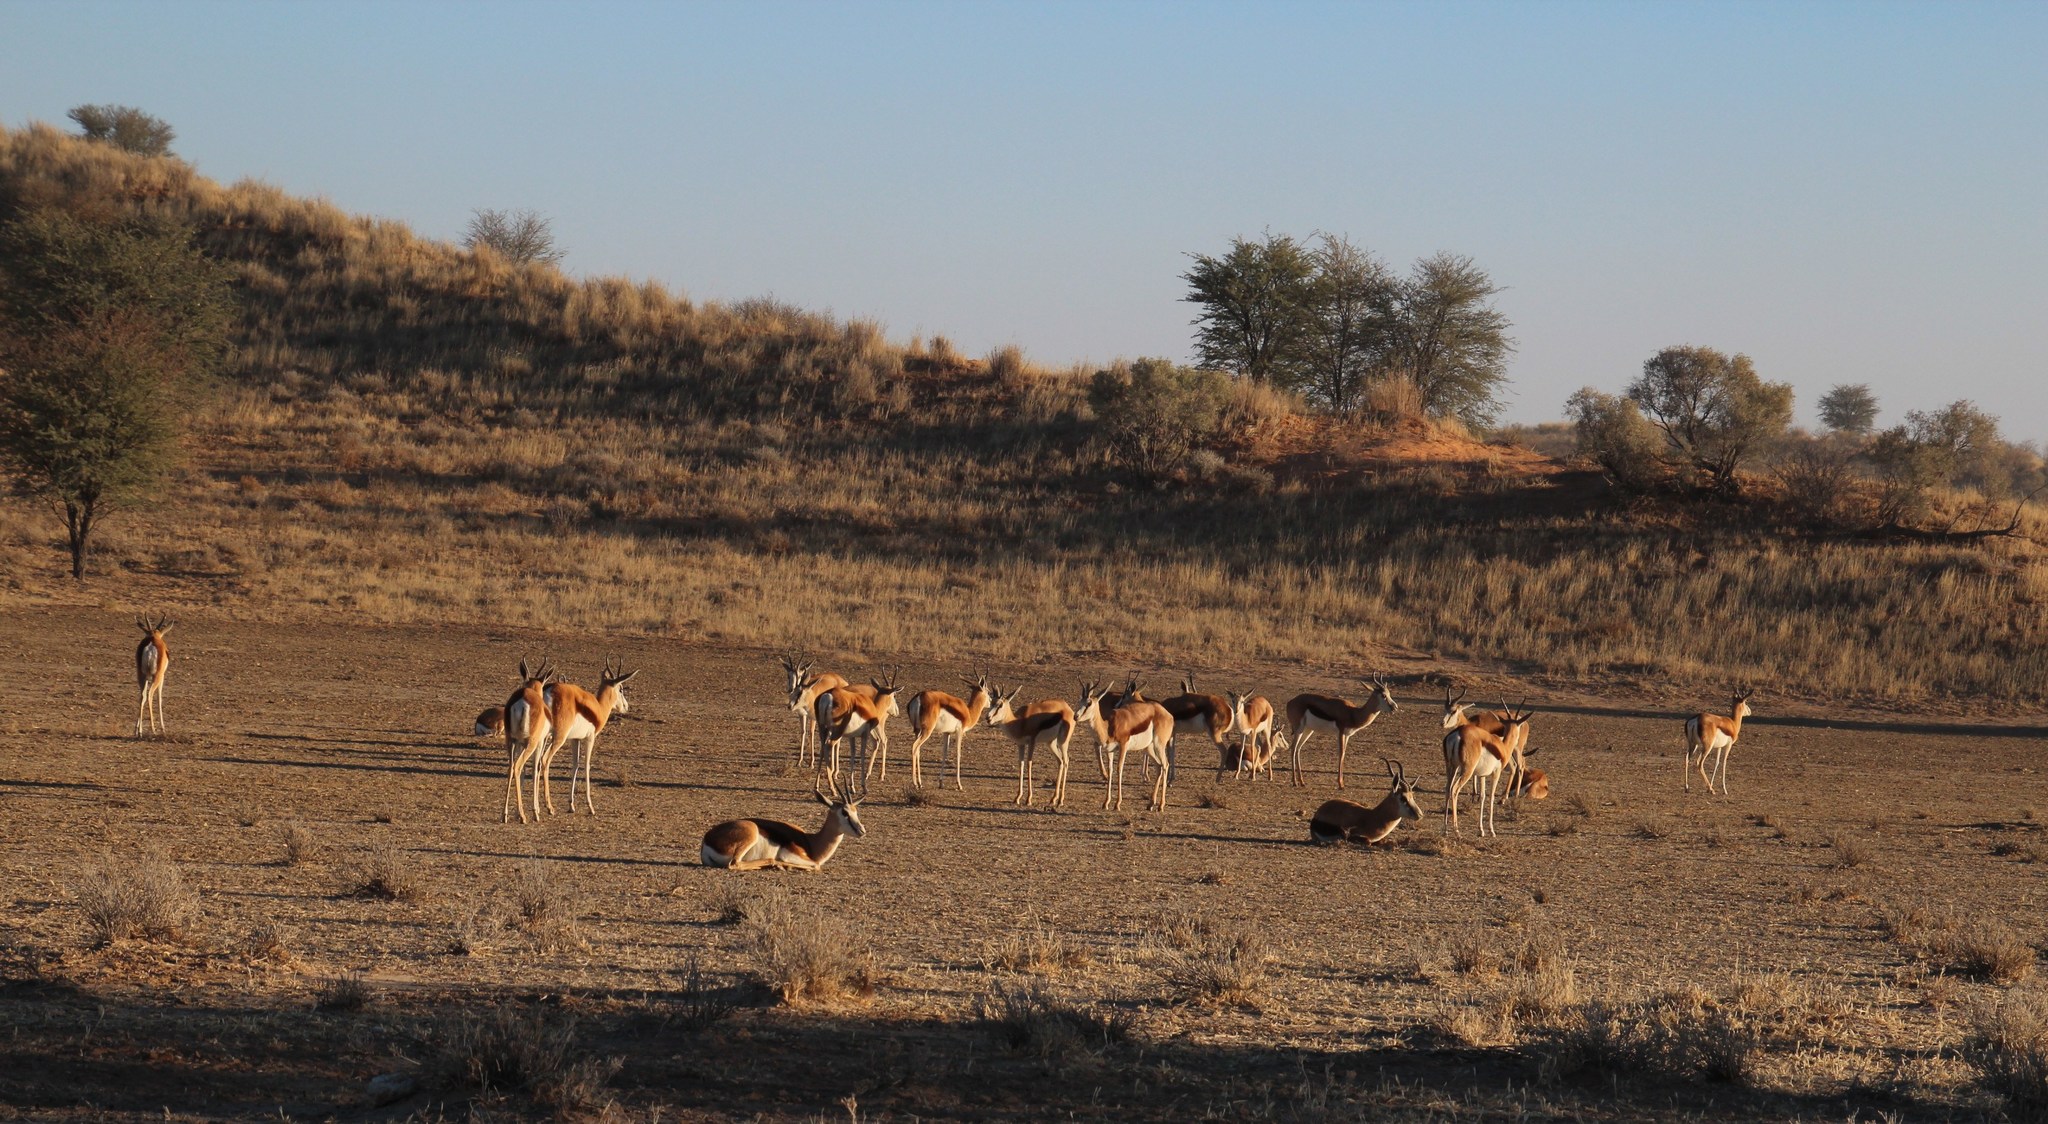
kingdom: Animalia
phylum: Chordata
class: Mammalia
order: Artiodactyla
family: Bovidae
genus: Antidorcas
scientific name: Antidorcas marsupialis
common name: Springbok
